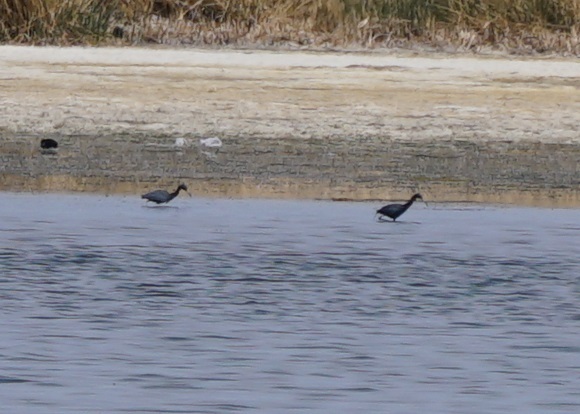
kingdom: Animalia
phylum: Chordata
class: Aves
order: Pelecaniformes
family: Ardeidae
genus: Egretta
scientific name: Egretta caerulea
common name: Little blue heron
